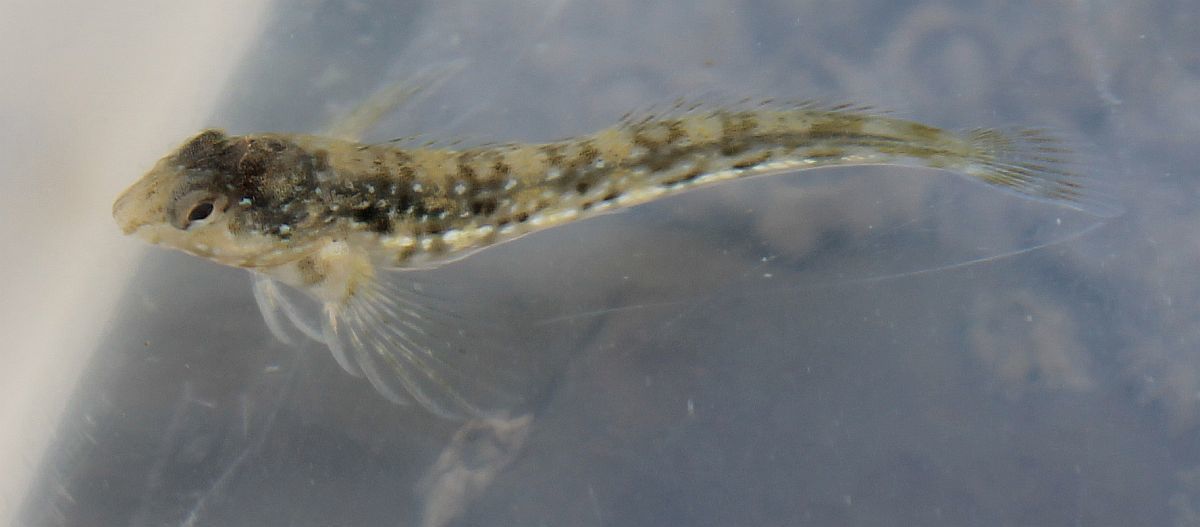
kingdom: Animalia
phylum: Chordata
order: Perciformes
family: Blenniidae
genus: Coryphoblennius
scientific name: Coryphoblennius galerita
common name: Montagu's blenny
